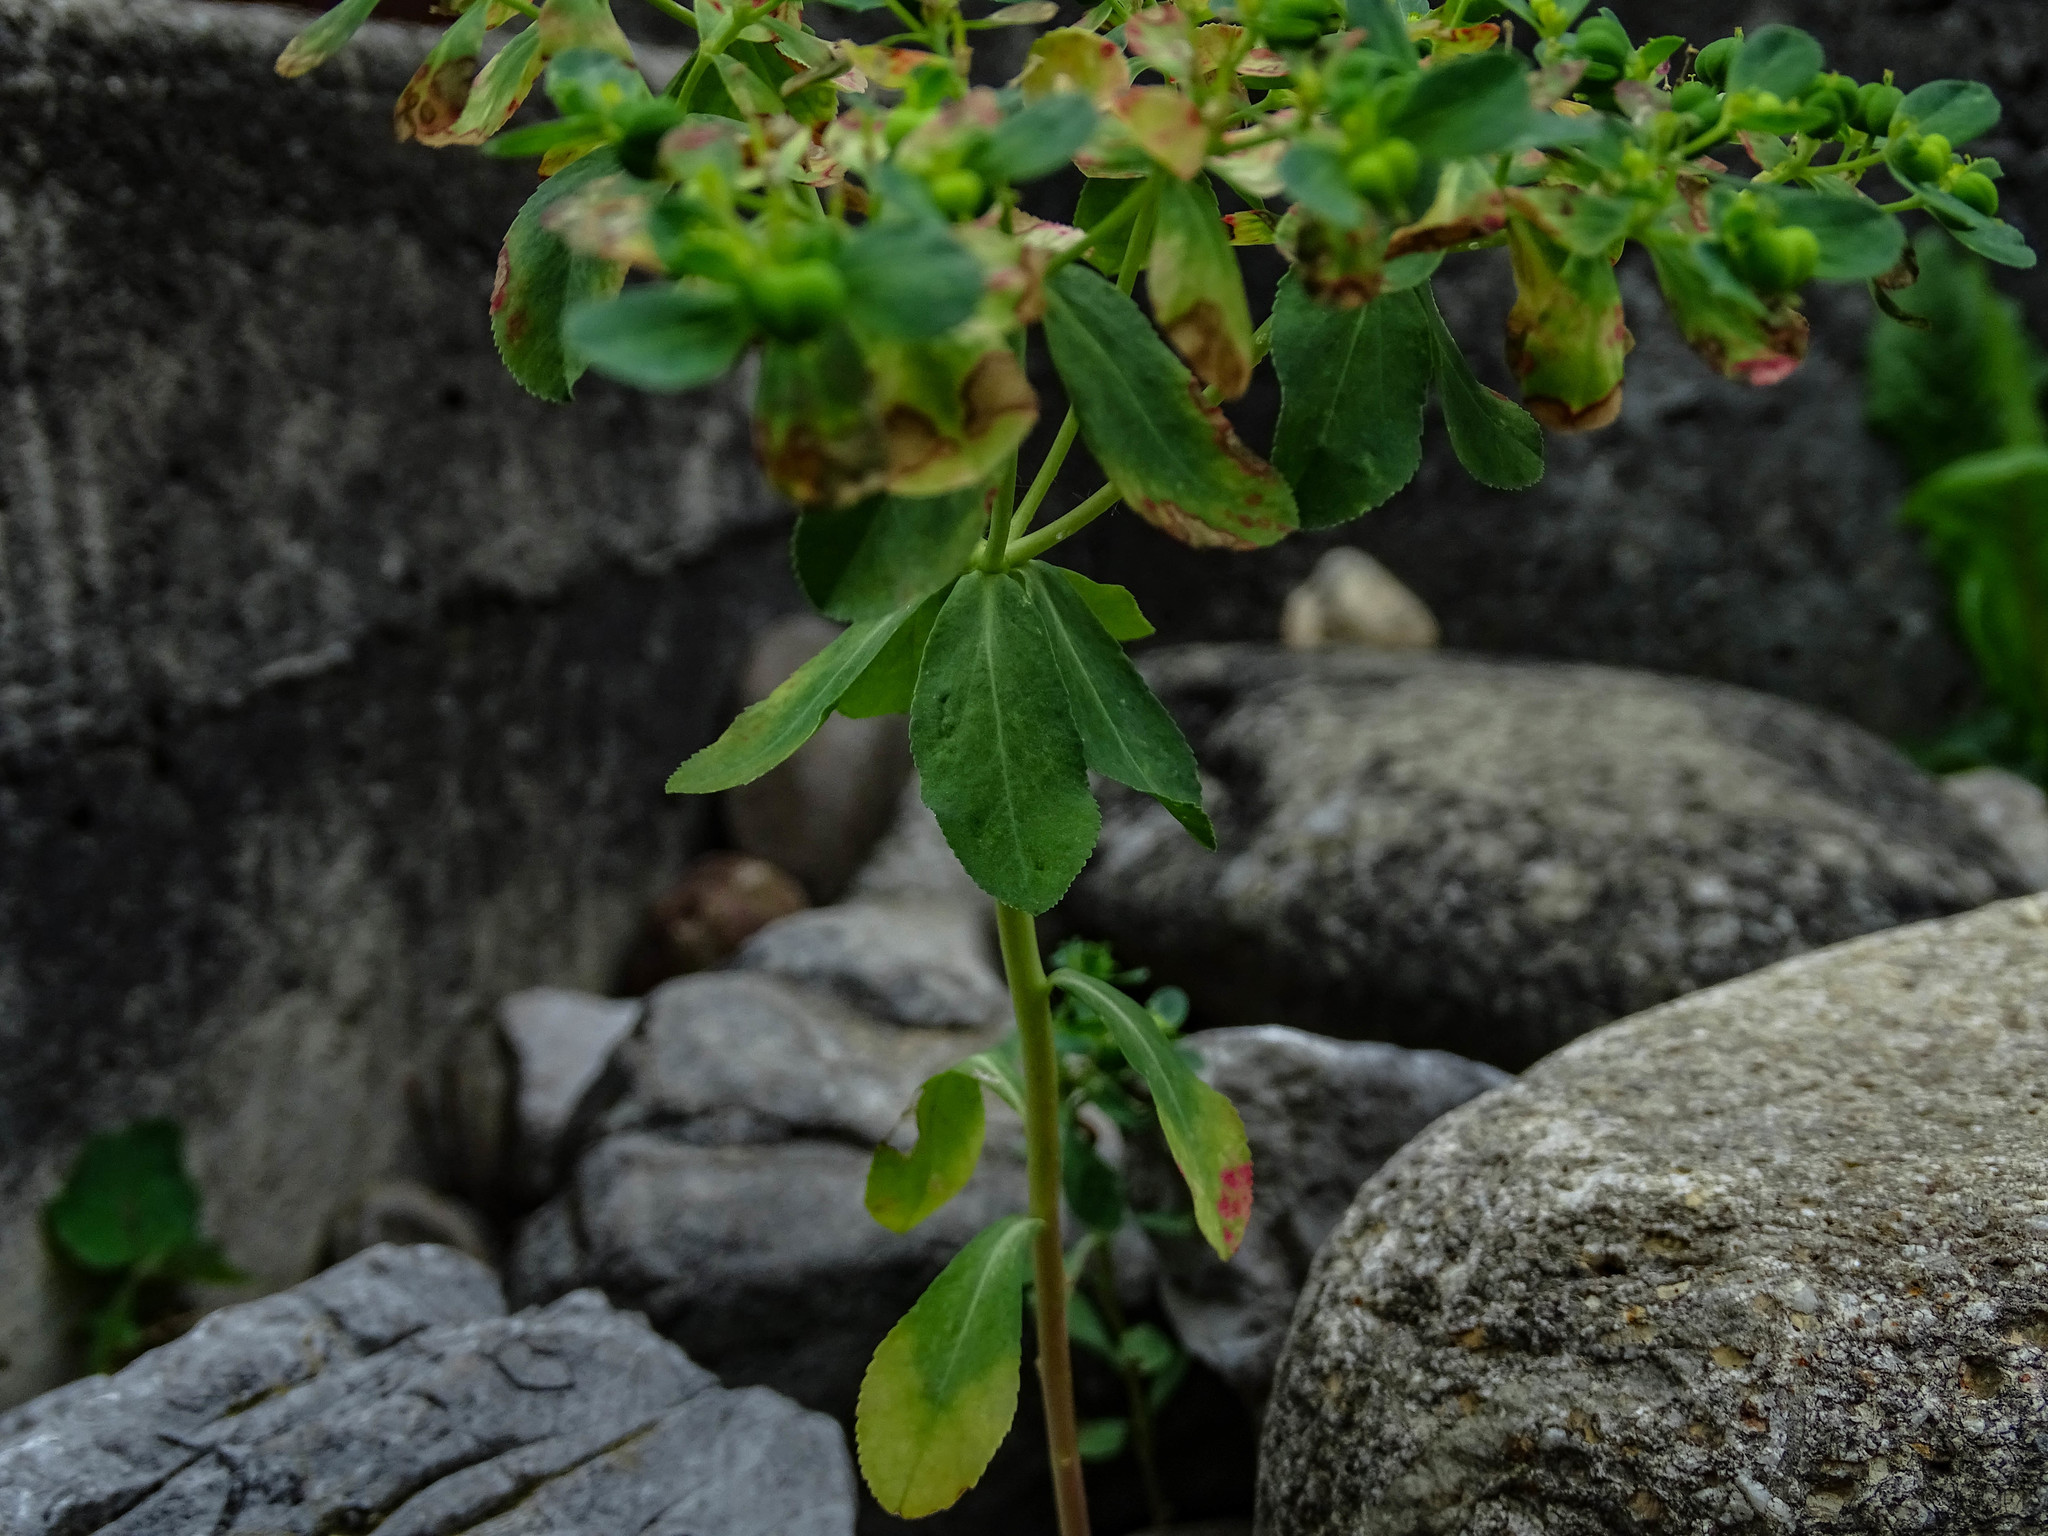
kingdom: Plantae
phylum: Tracheophyta
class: Magnoliopsida
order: Malpighiales
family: Euphorbiaceae
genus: Euphorbia
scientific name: Euphorbia helioscopia
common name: Sun spurge
